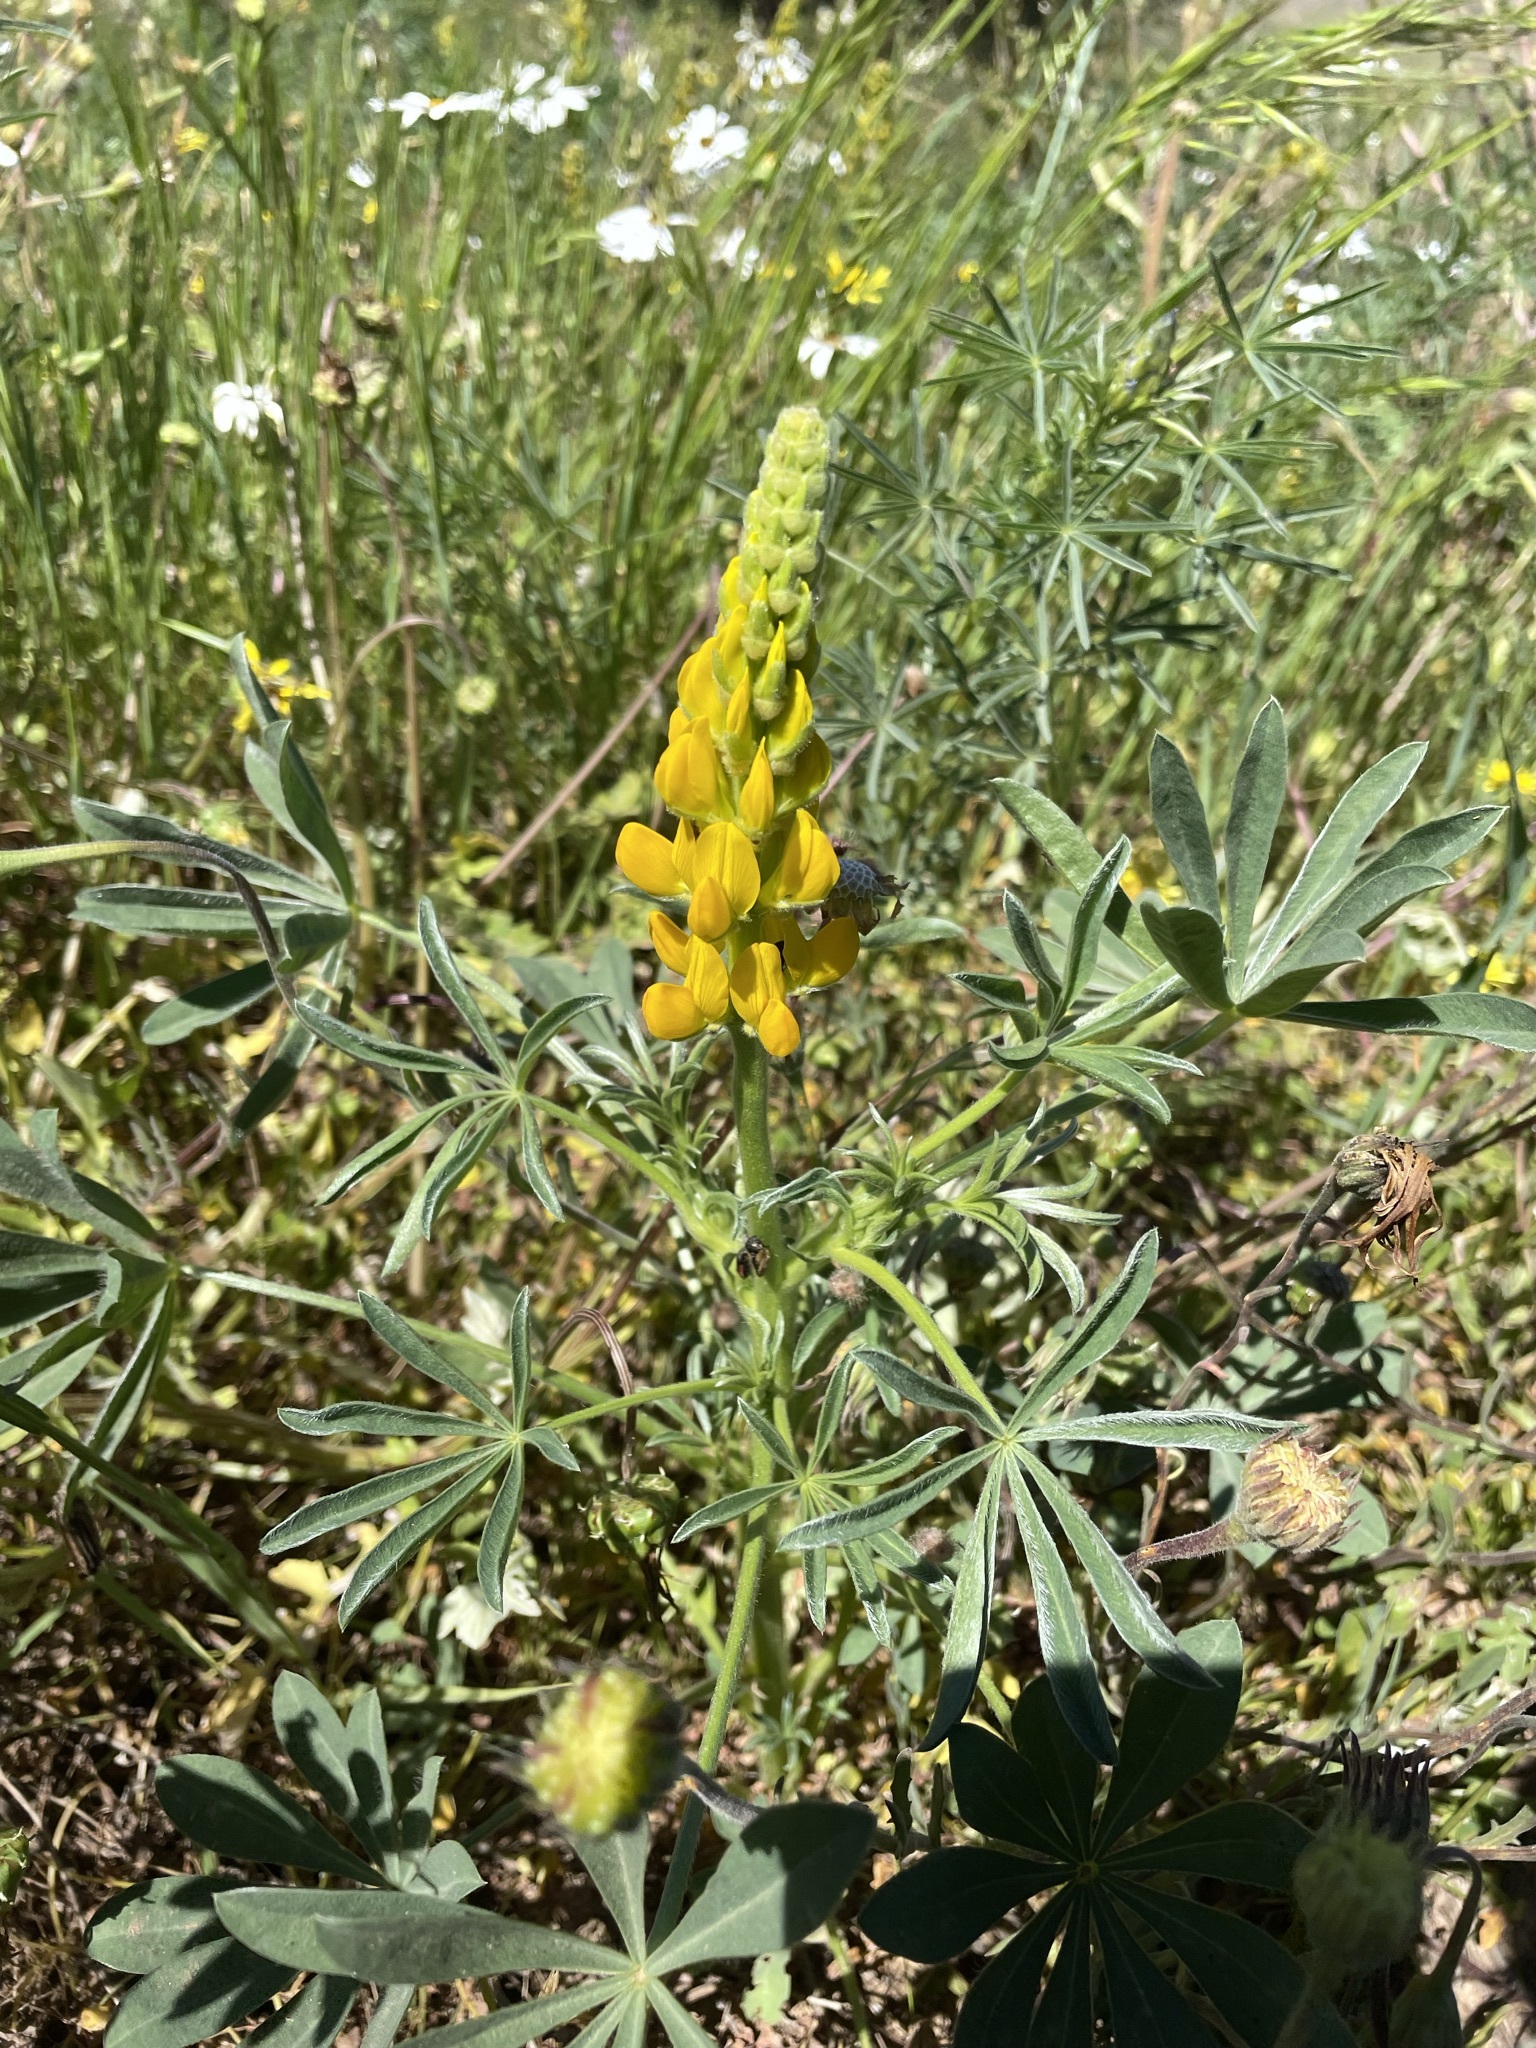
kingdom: Plantae
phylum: Tracheophyta
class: Magnoliopsida
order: Fabales
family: Fabaceae
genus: Lupinus
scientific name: Lupinus luteus
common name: European yellow lupine
